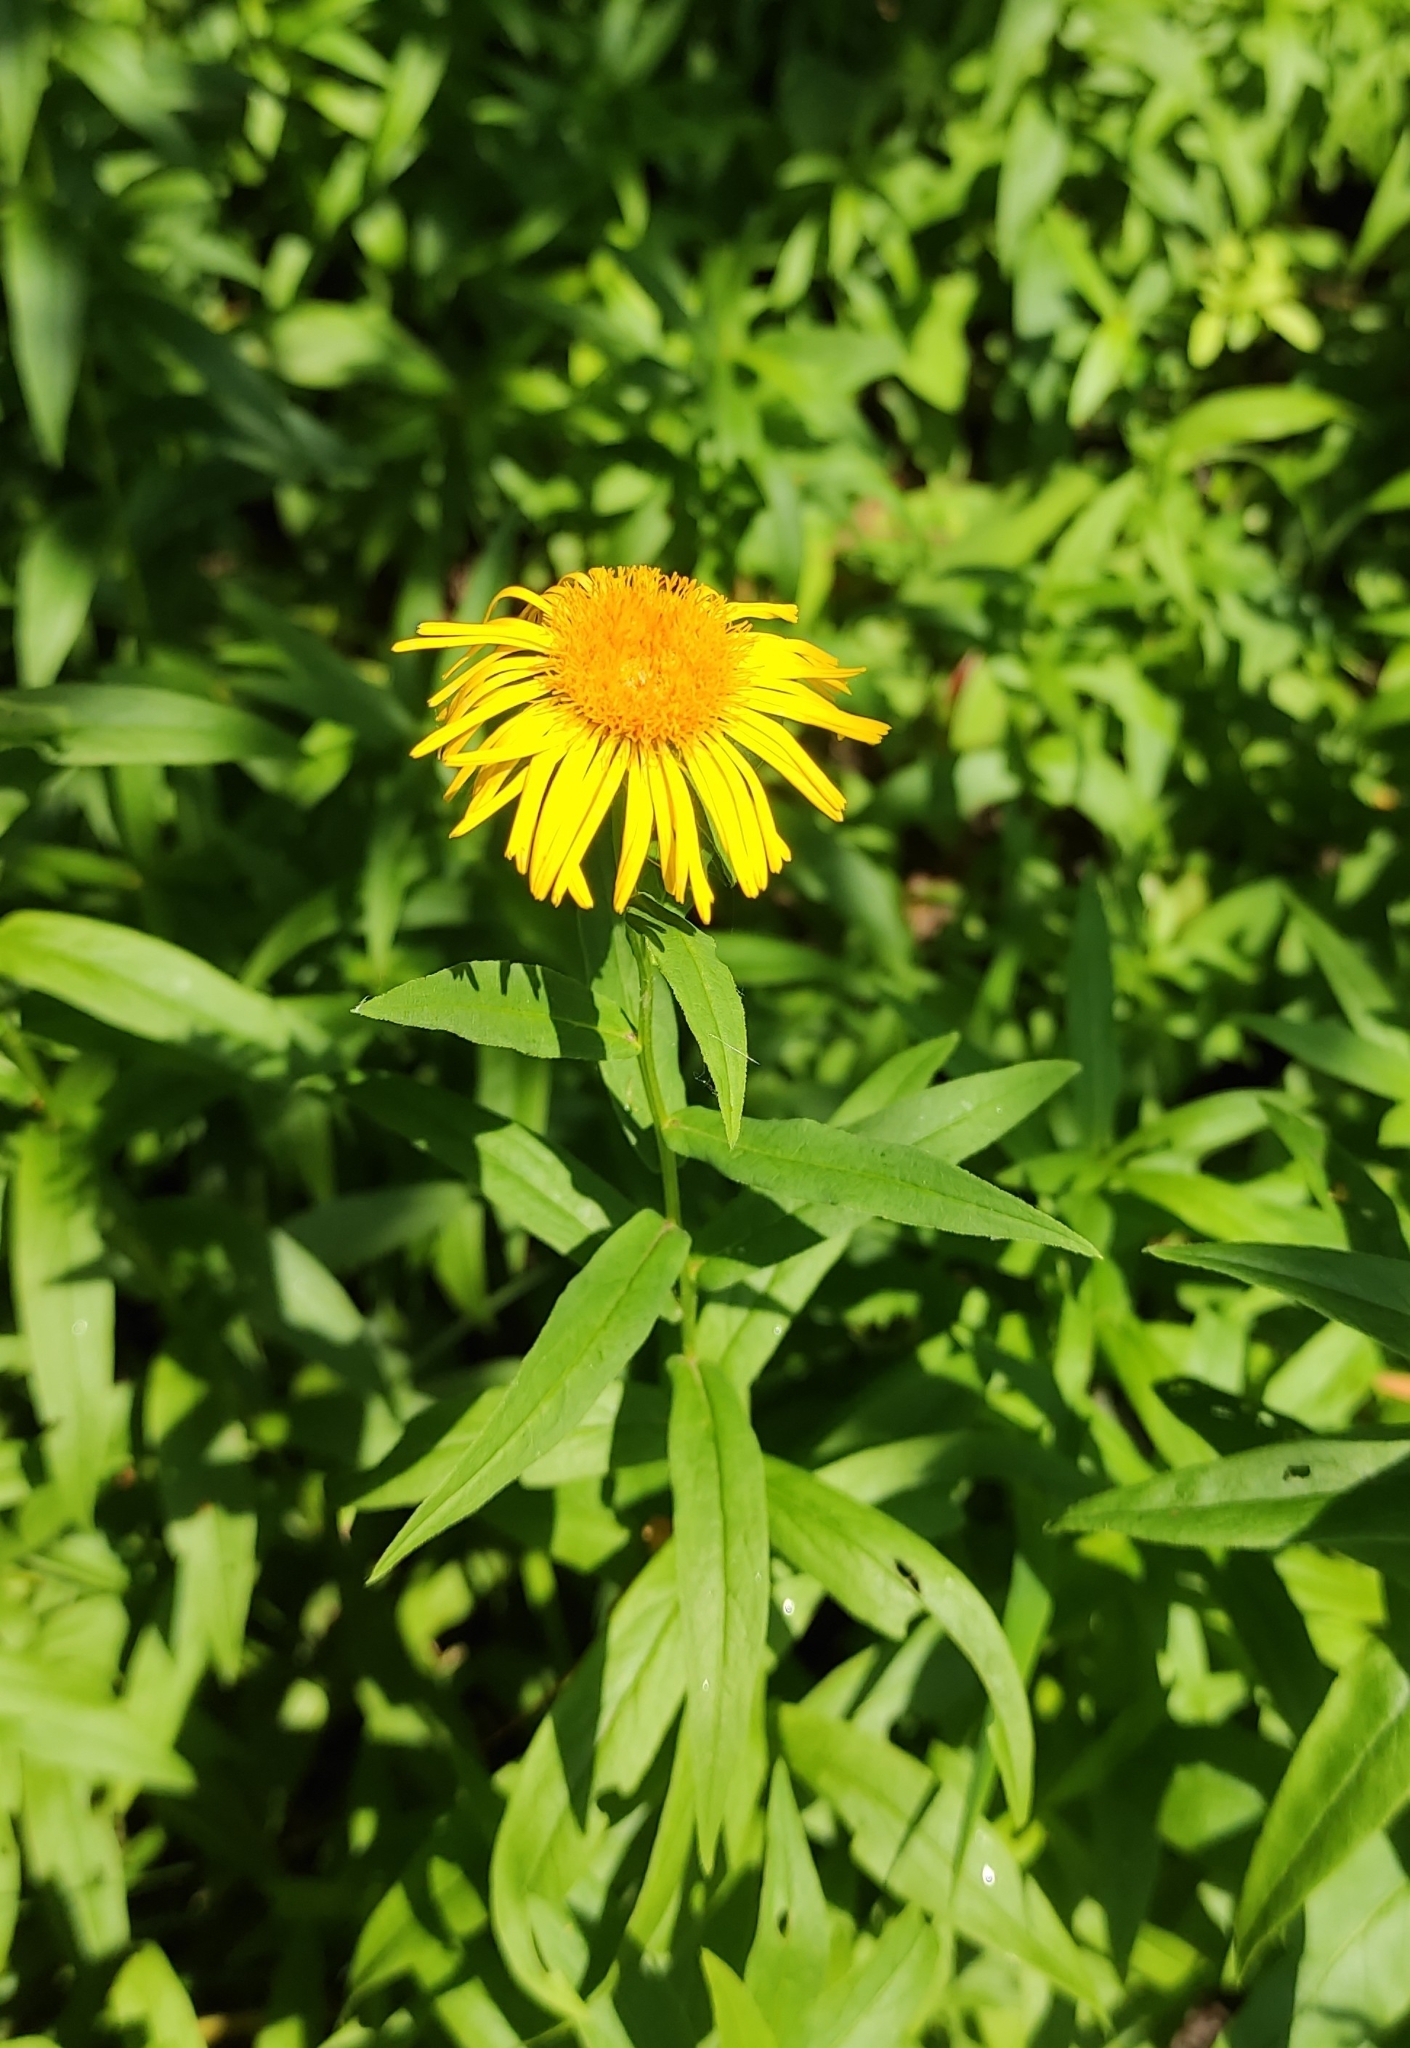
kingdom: Plantae
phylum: Tracheophyta
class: Magnoliopsida
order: Asterales
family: Asteraceae
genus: Pentanema
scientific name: Pentanema salicinum
